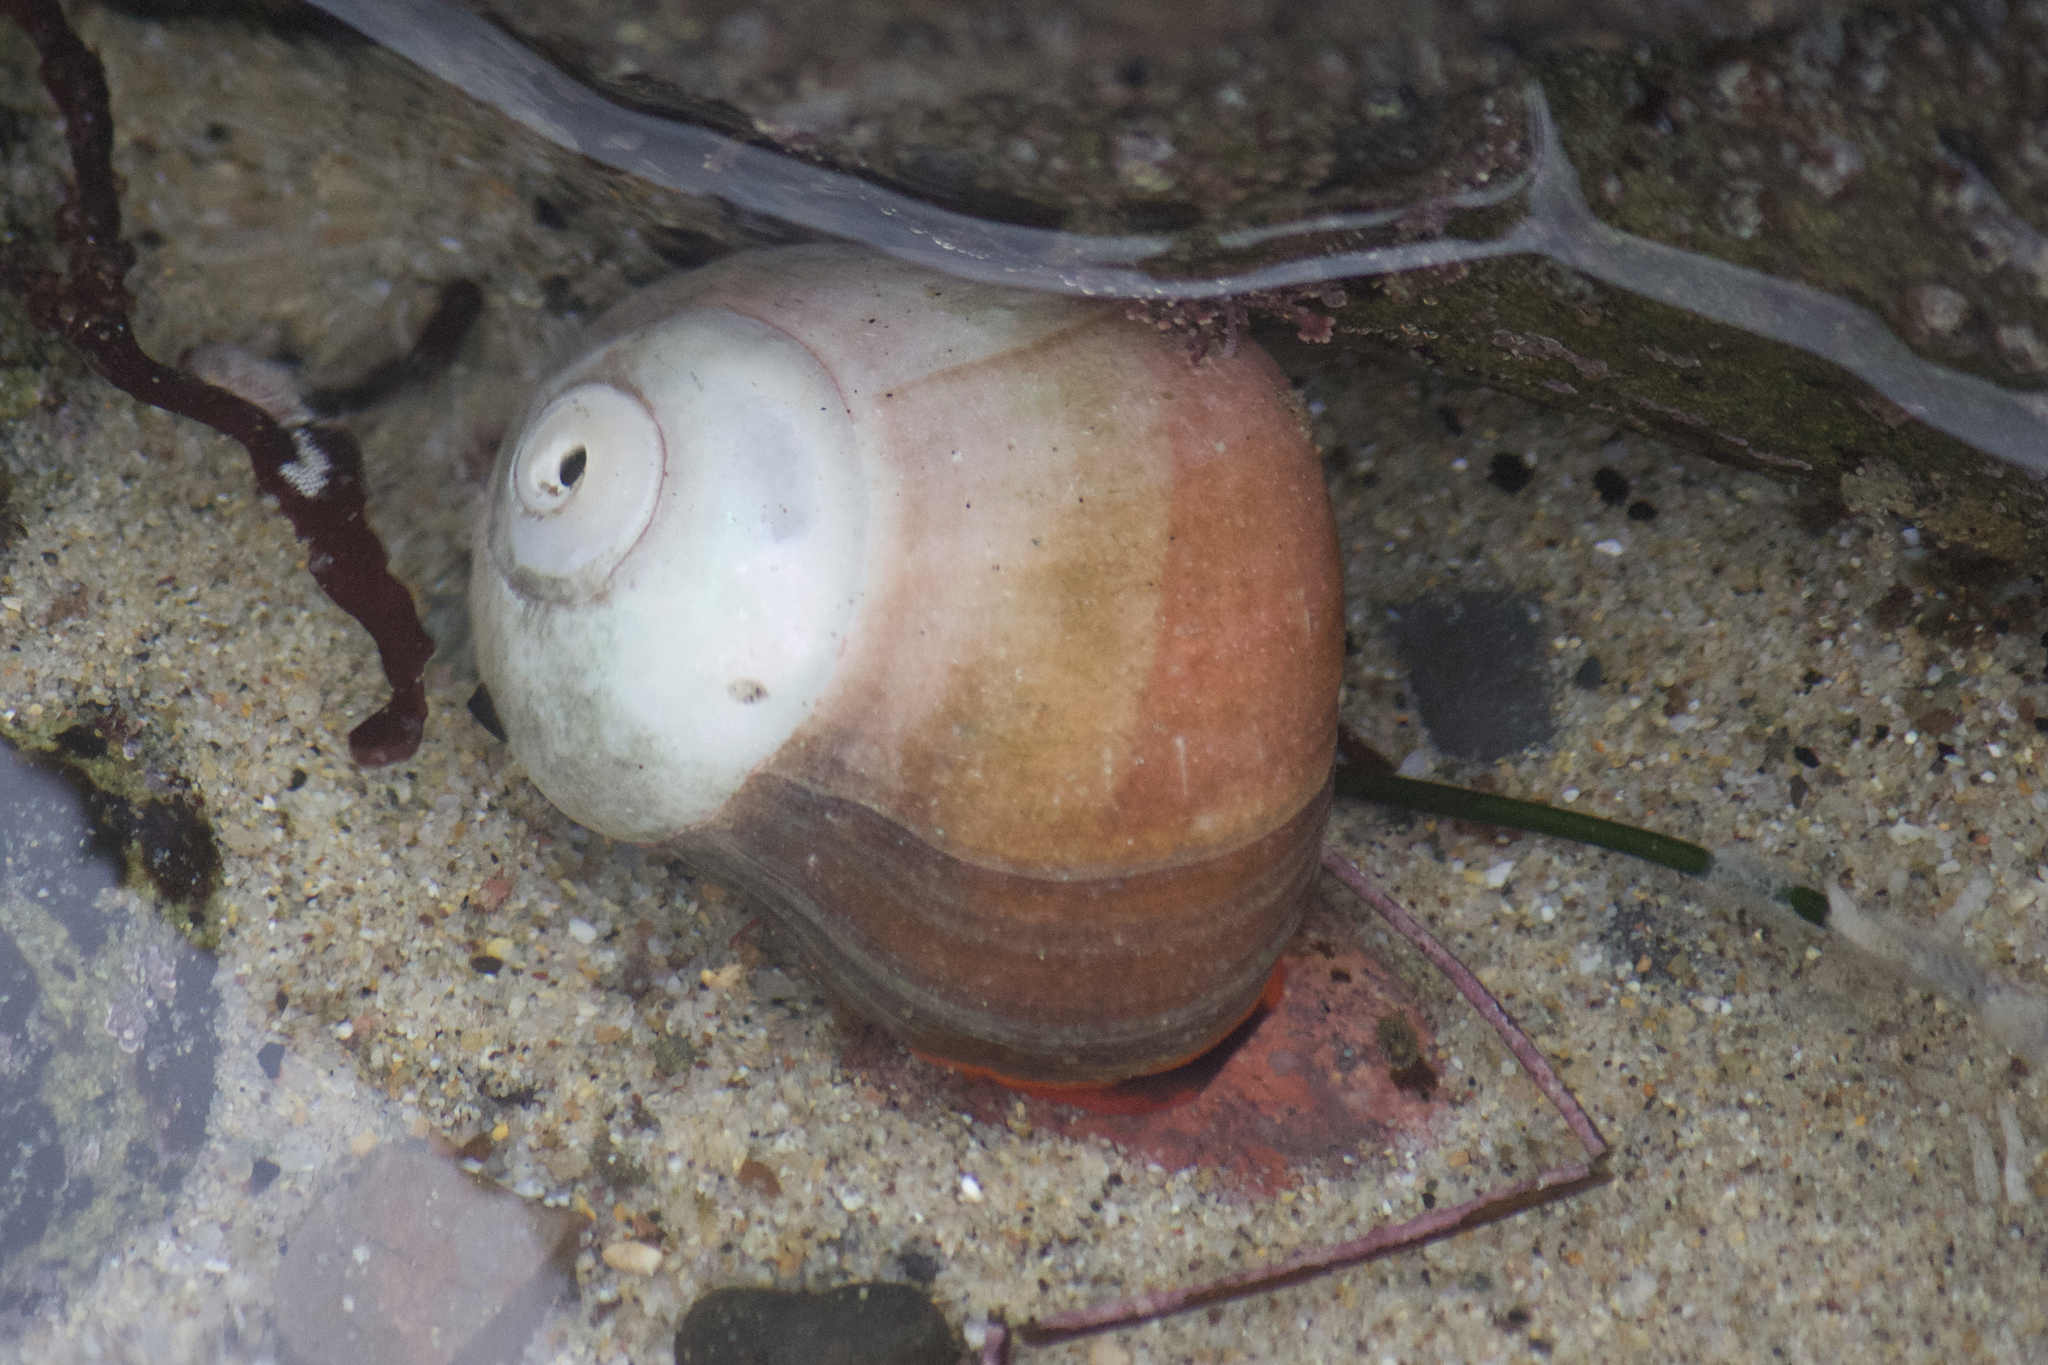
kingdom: Animalia
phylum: Mollusca
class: Gastropoda
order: Trochida
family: Tegulidae
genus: Norrisia
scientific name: Norrisia norrisii
